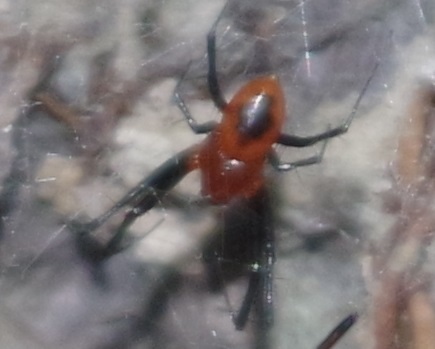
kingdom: Animalia
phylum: Arthropoda
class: Arachnida
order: Araneae
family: Araneidae
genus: Nephilengys
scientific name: Nephilengys malabarensis
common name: Asian hermit spider
